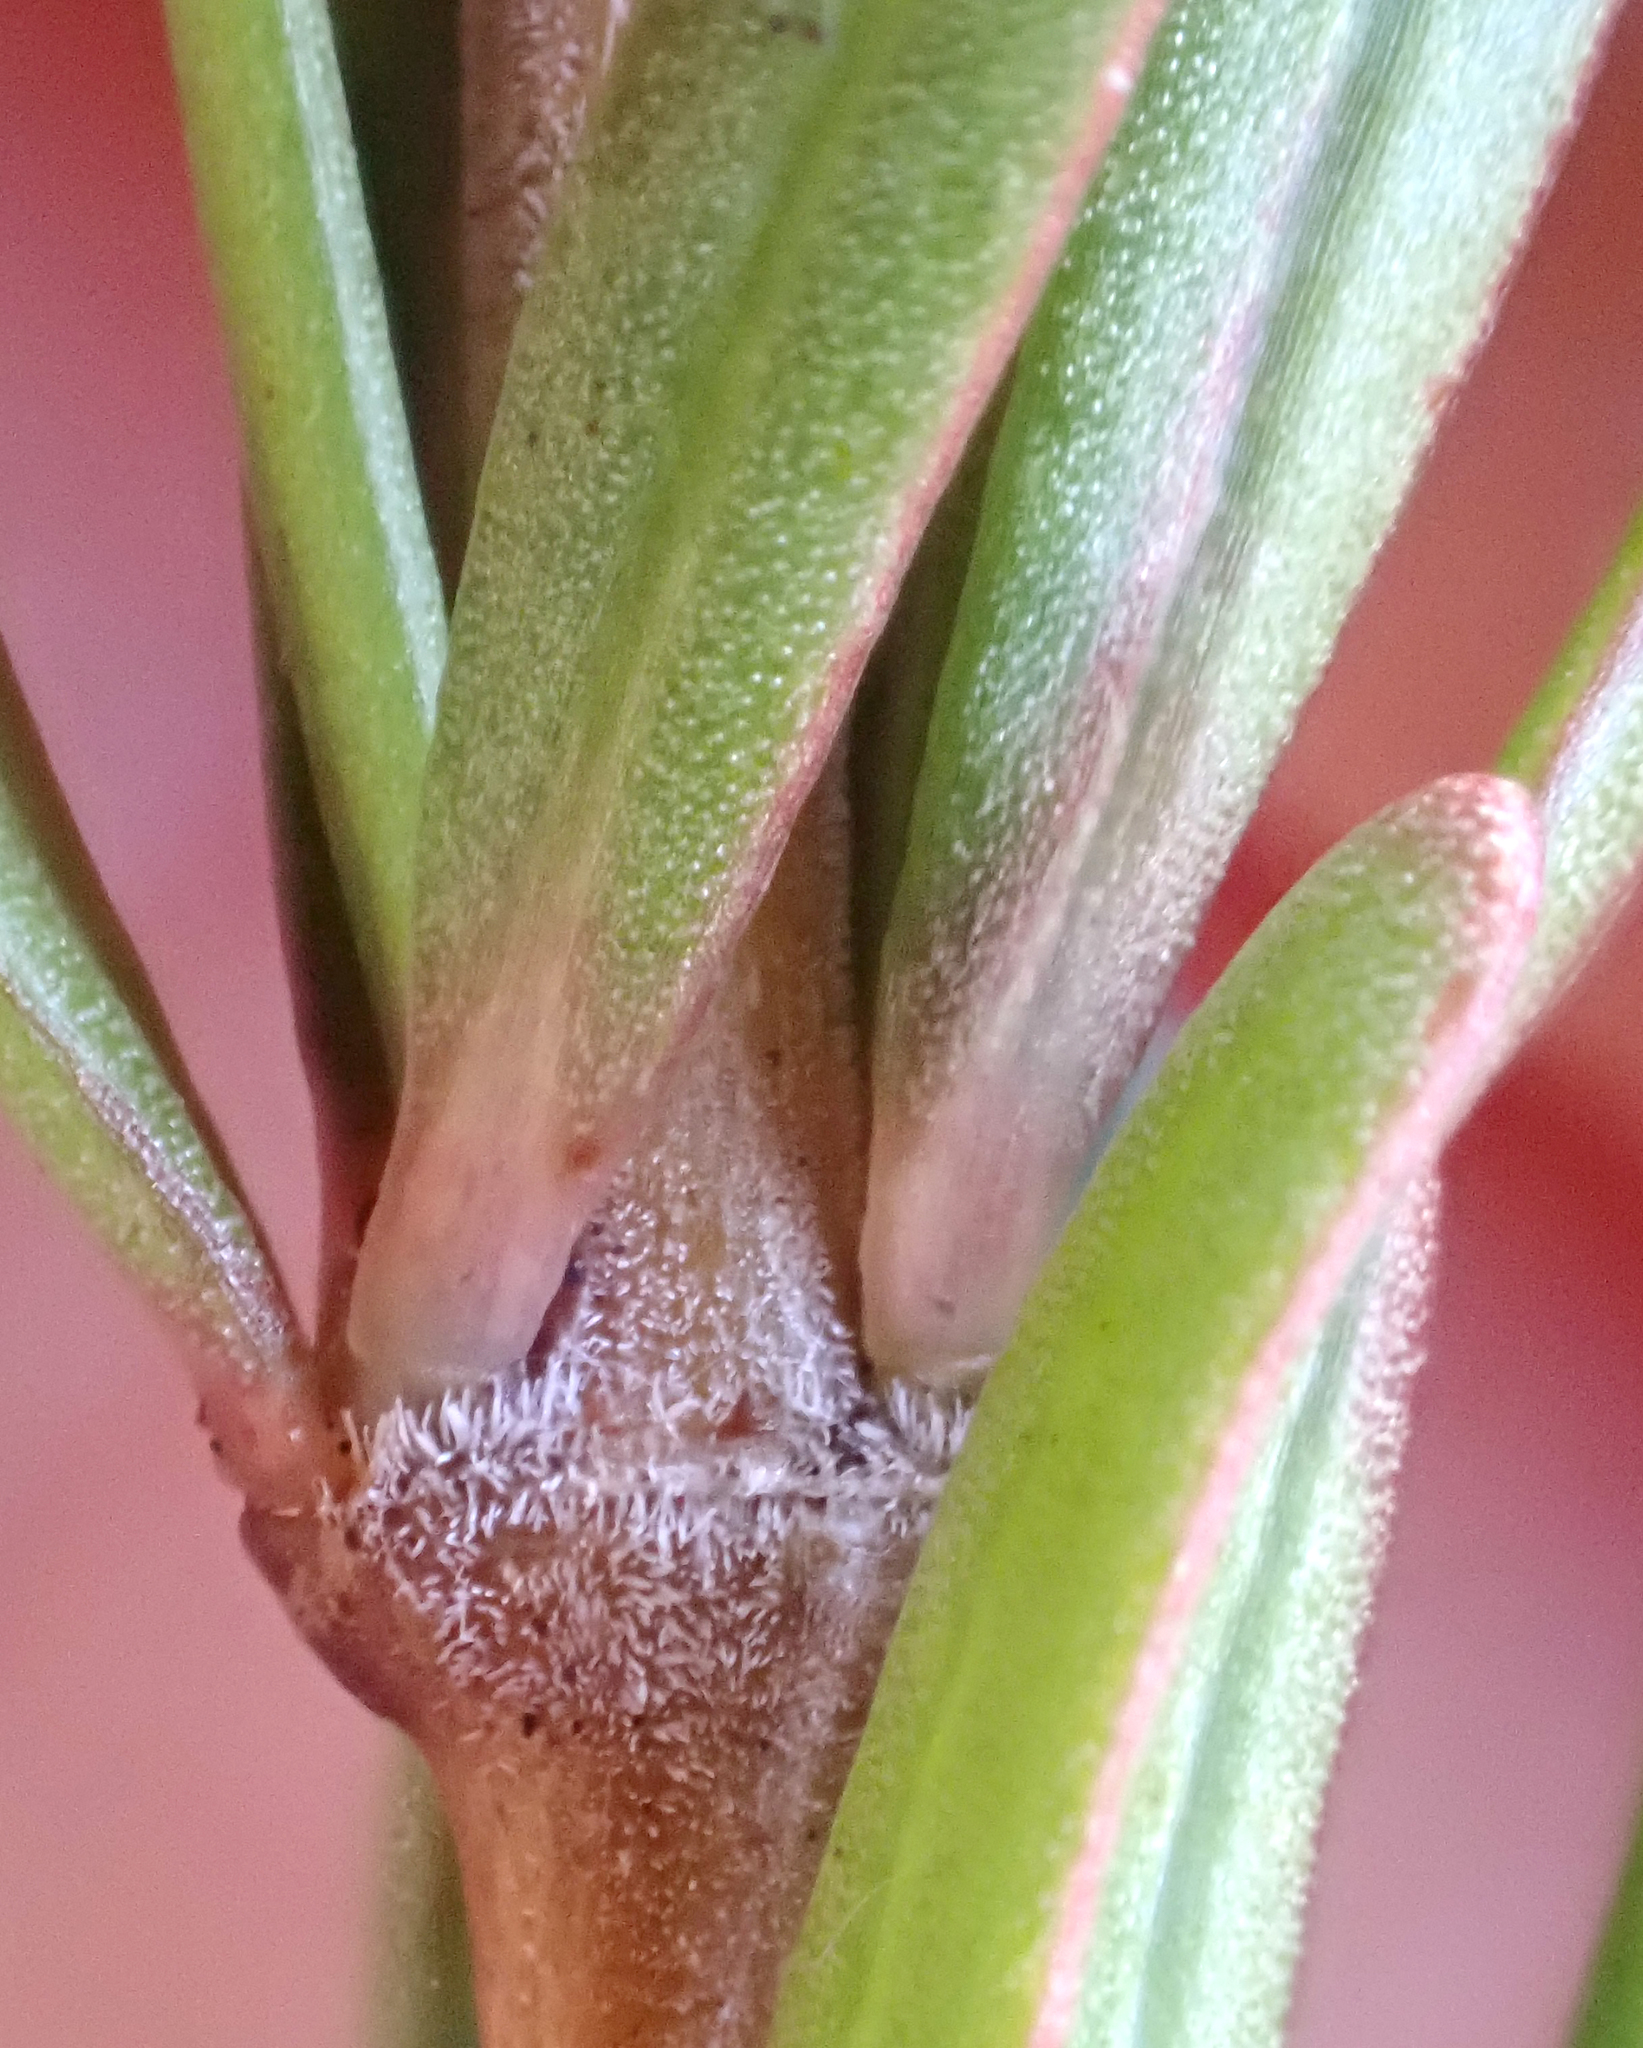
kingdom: Plantae
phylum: Tracheophyta
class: Magnoliopsida
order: Gentianales
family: Rubiaceae
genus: Coprosma
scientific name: Coprosma acerosa
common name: Sand coprosma
